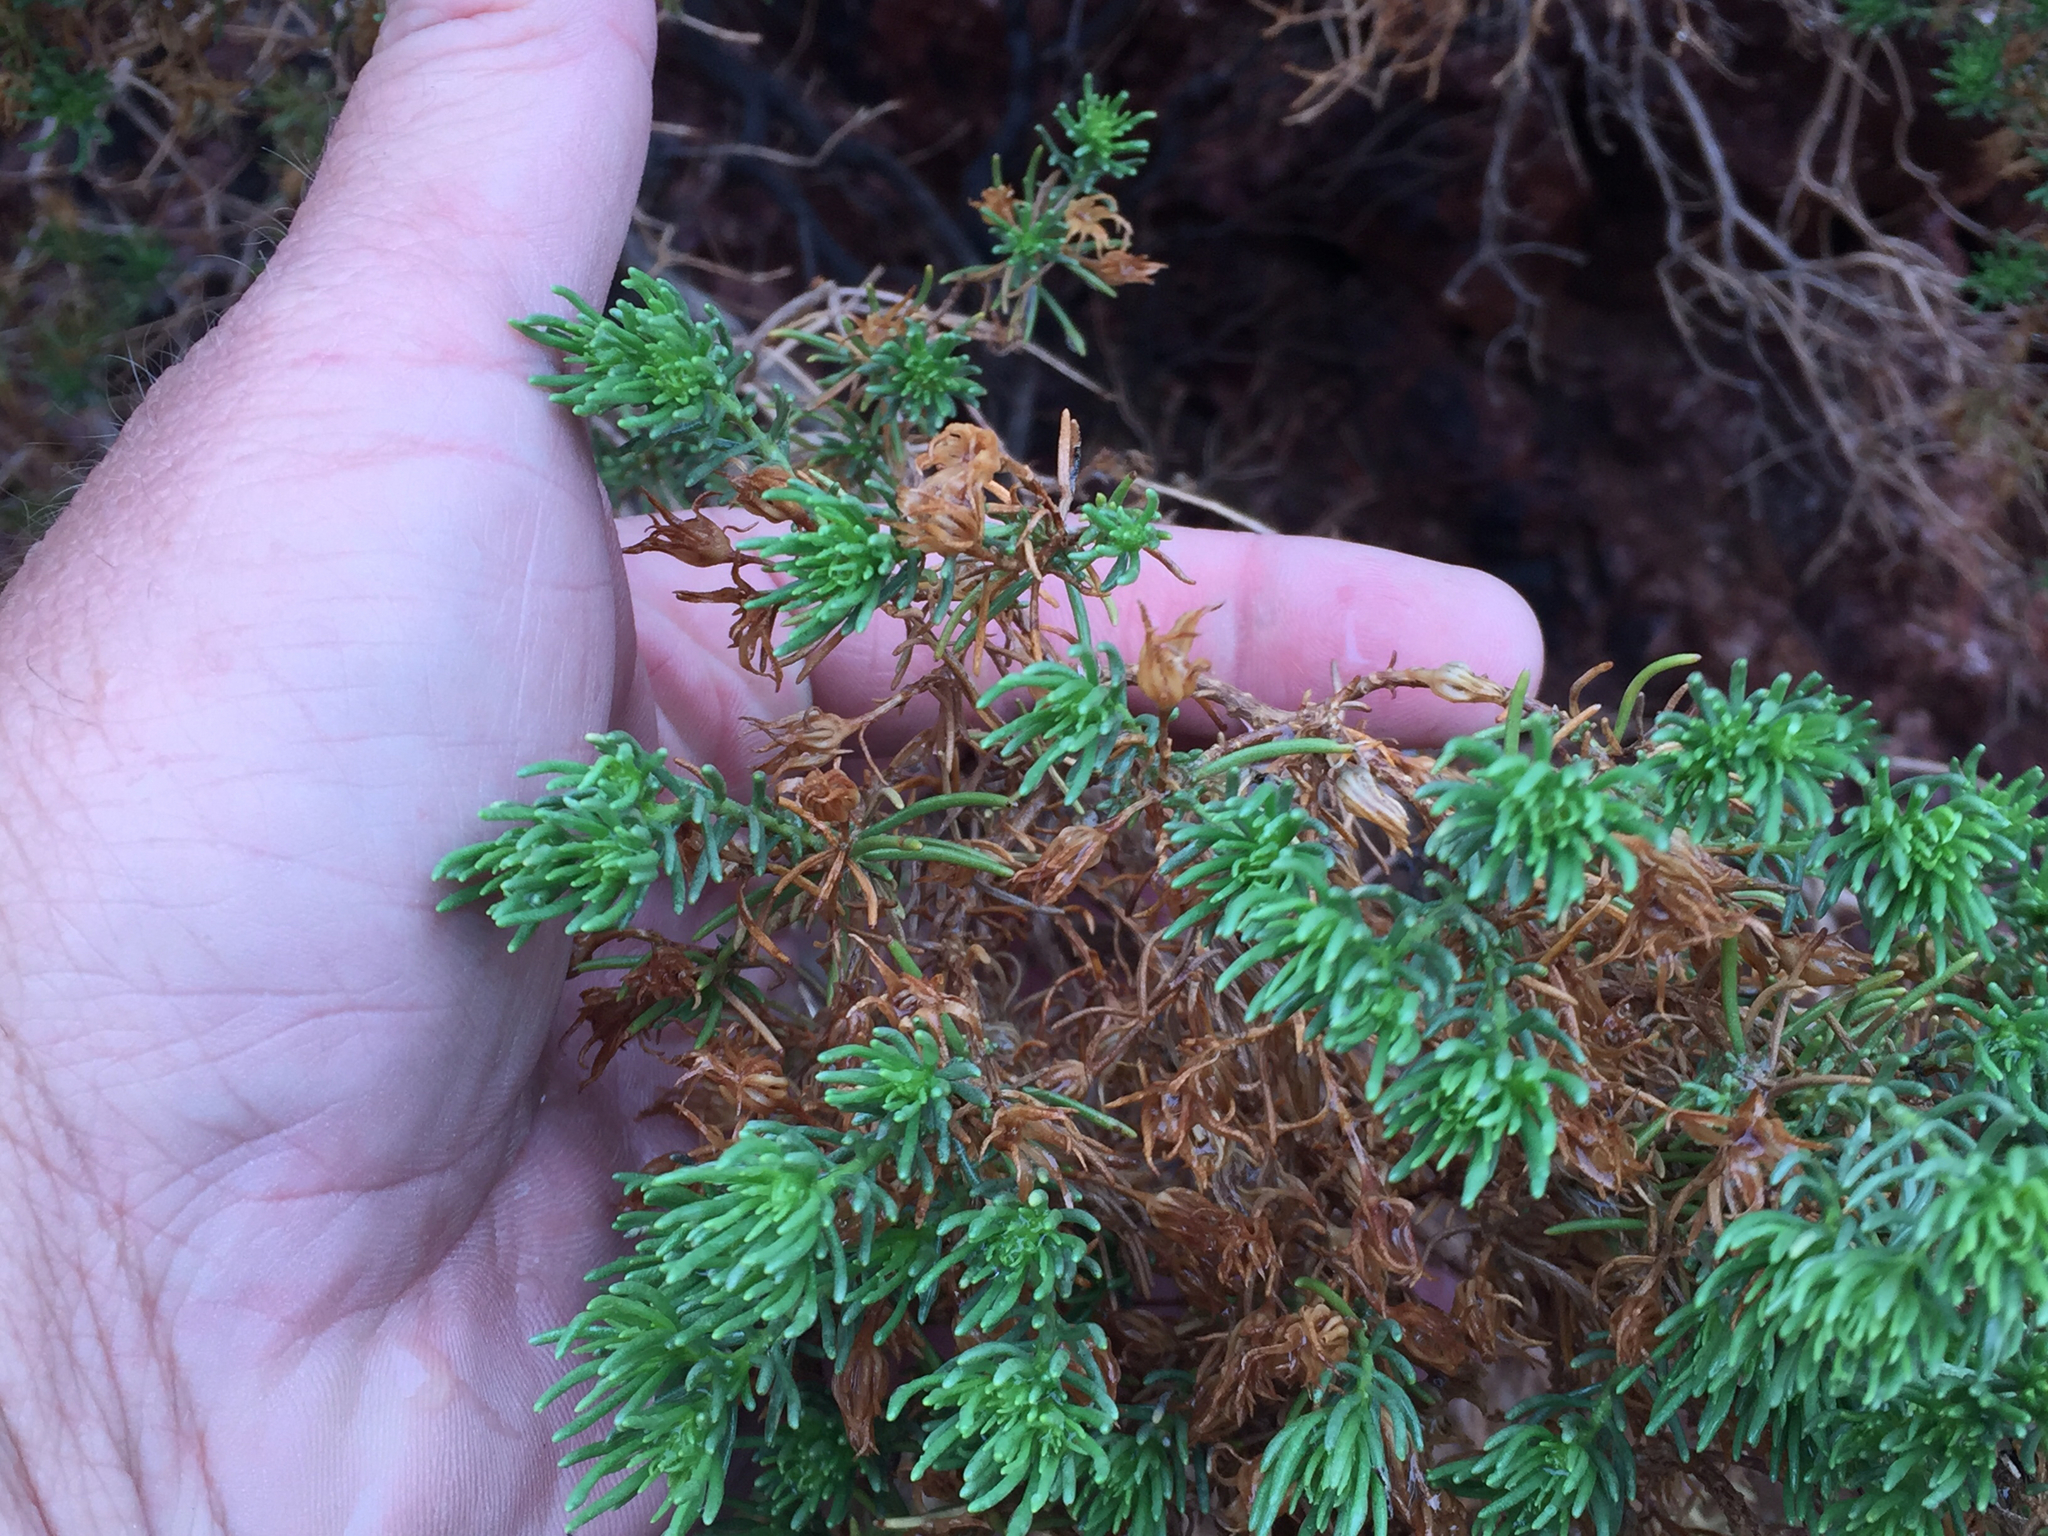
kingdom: Plantae
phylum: Tracheophyta
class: Magnoliopsida
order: Asterales
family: Asteraceae
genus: Peucephyllum
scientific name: Peucephyllum schottii
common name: Pygmy-cedar
